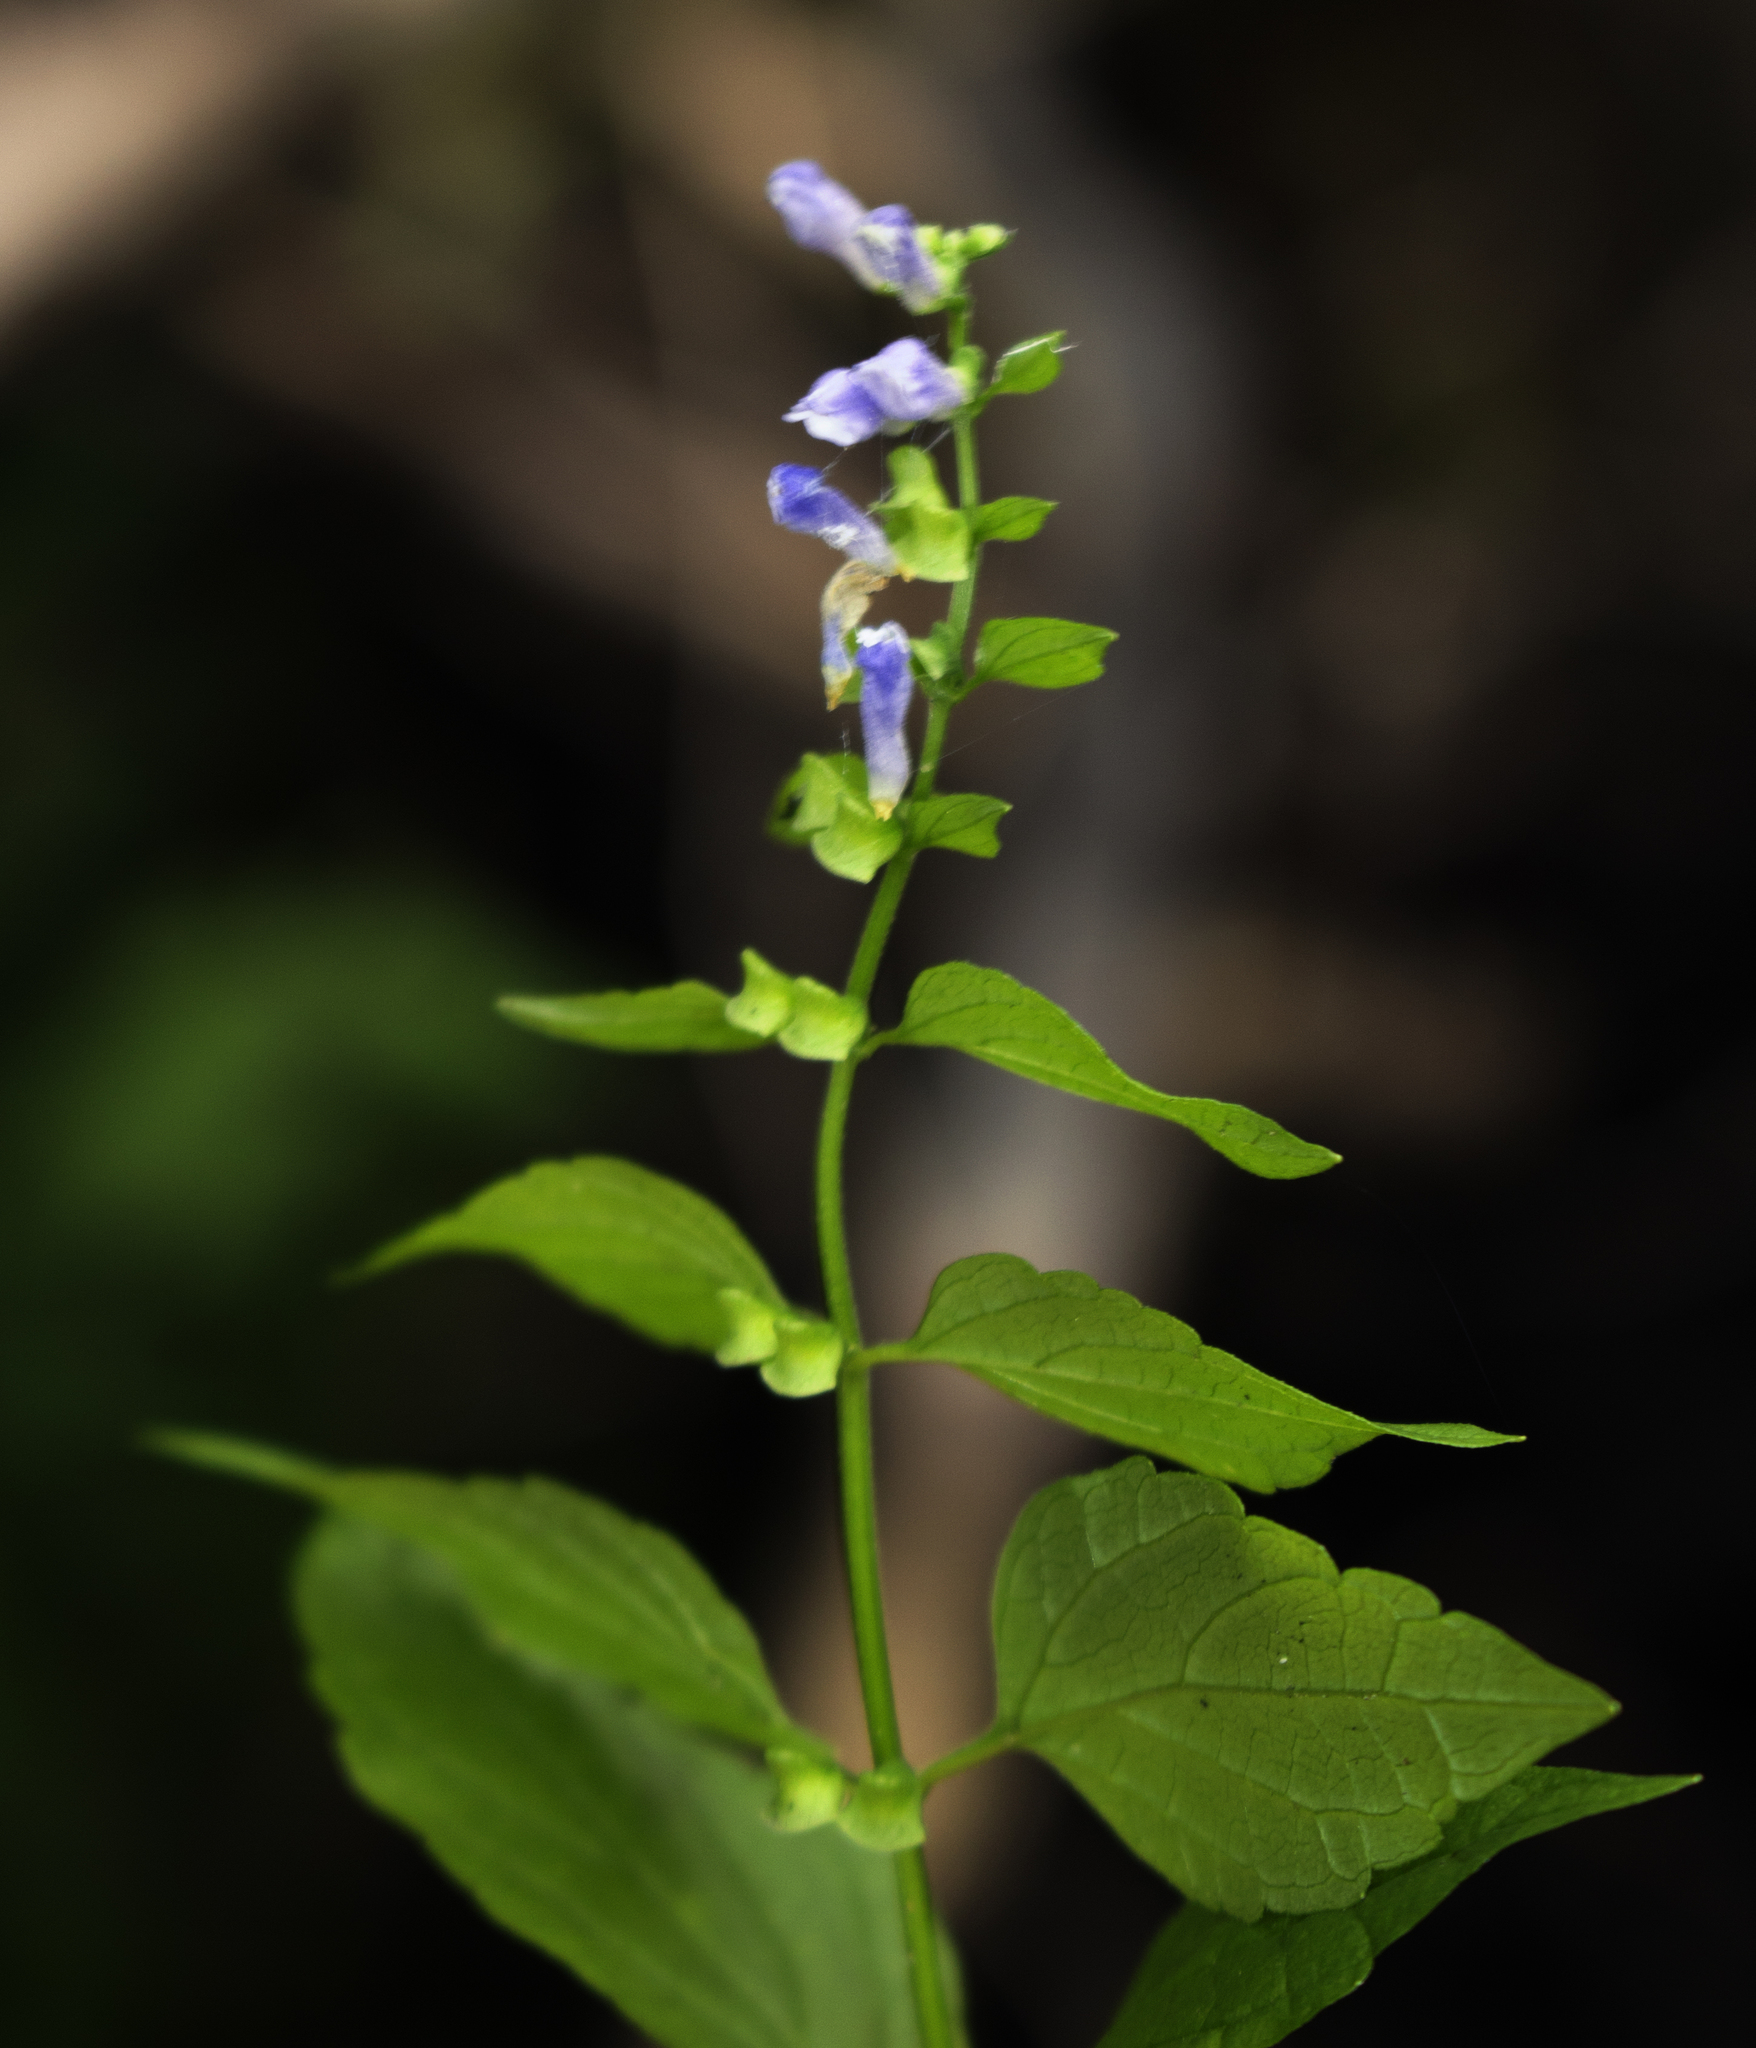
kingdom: Plantae
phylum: Tracheophyta
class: Magnoliopsida
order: Lamiales
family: Lamiaceae
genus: Scutellaria
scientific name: Scutellaria lateriflora
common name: Blue skullcap
